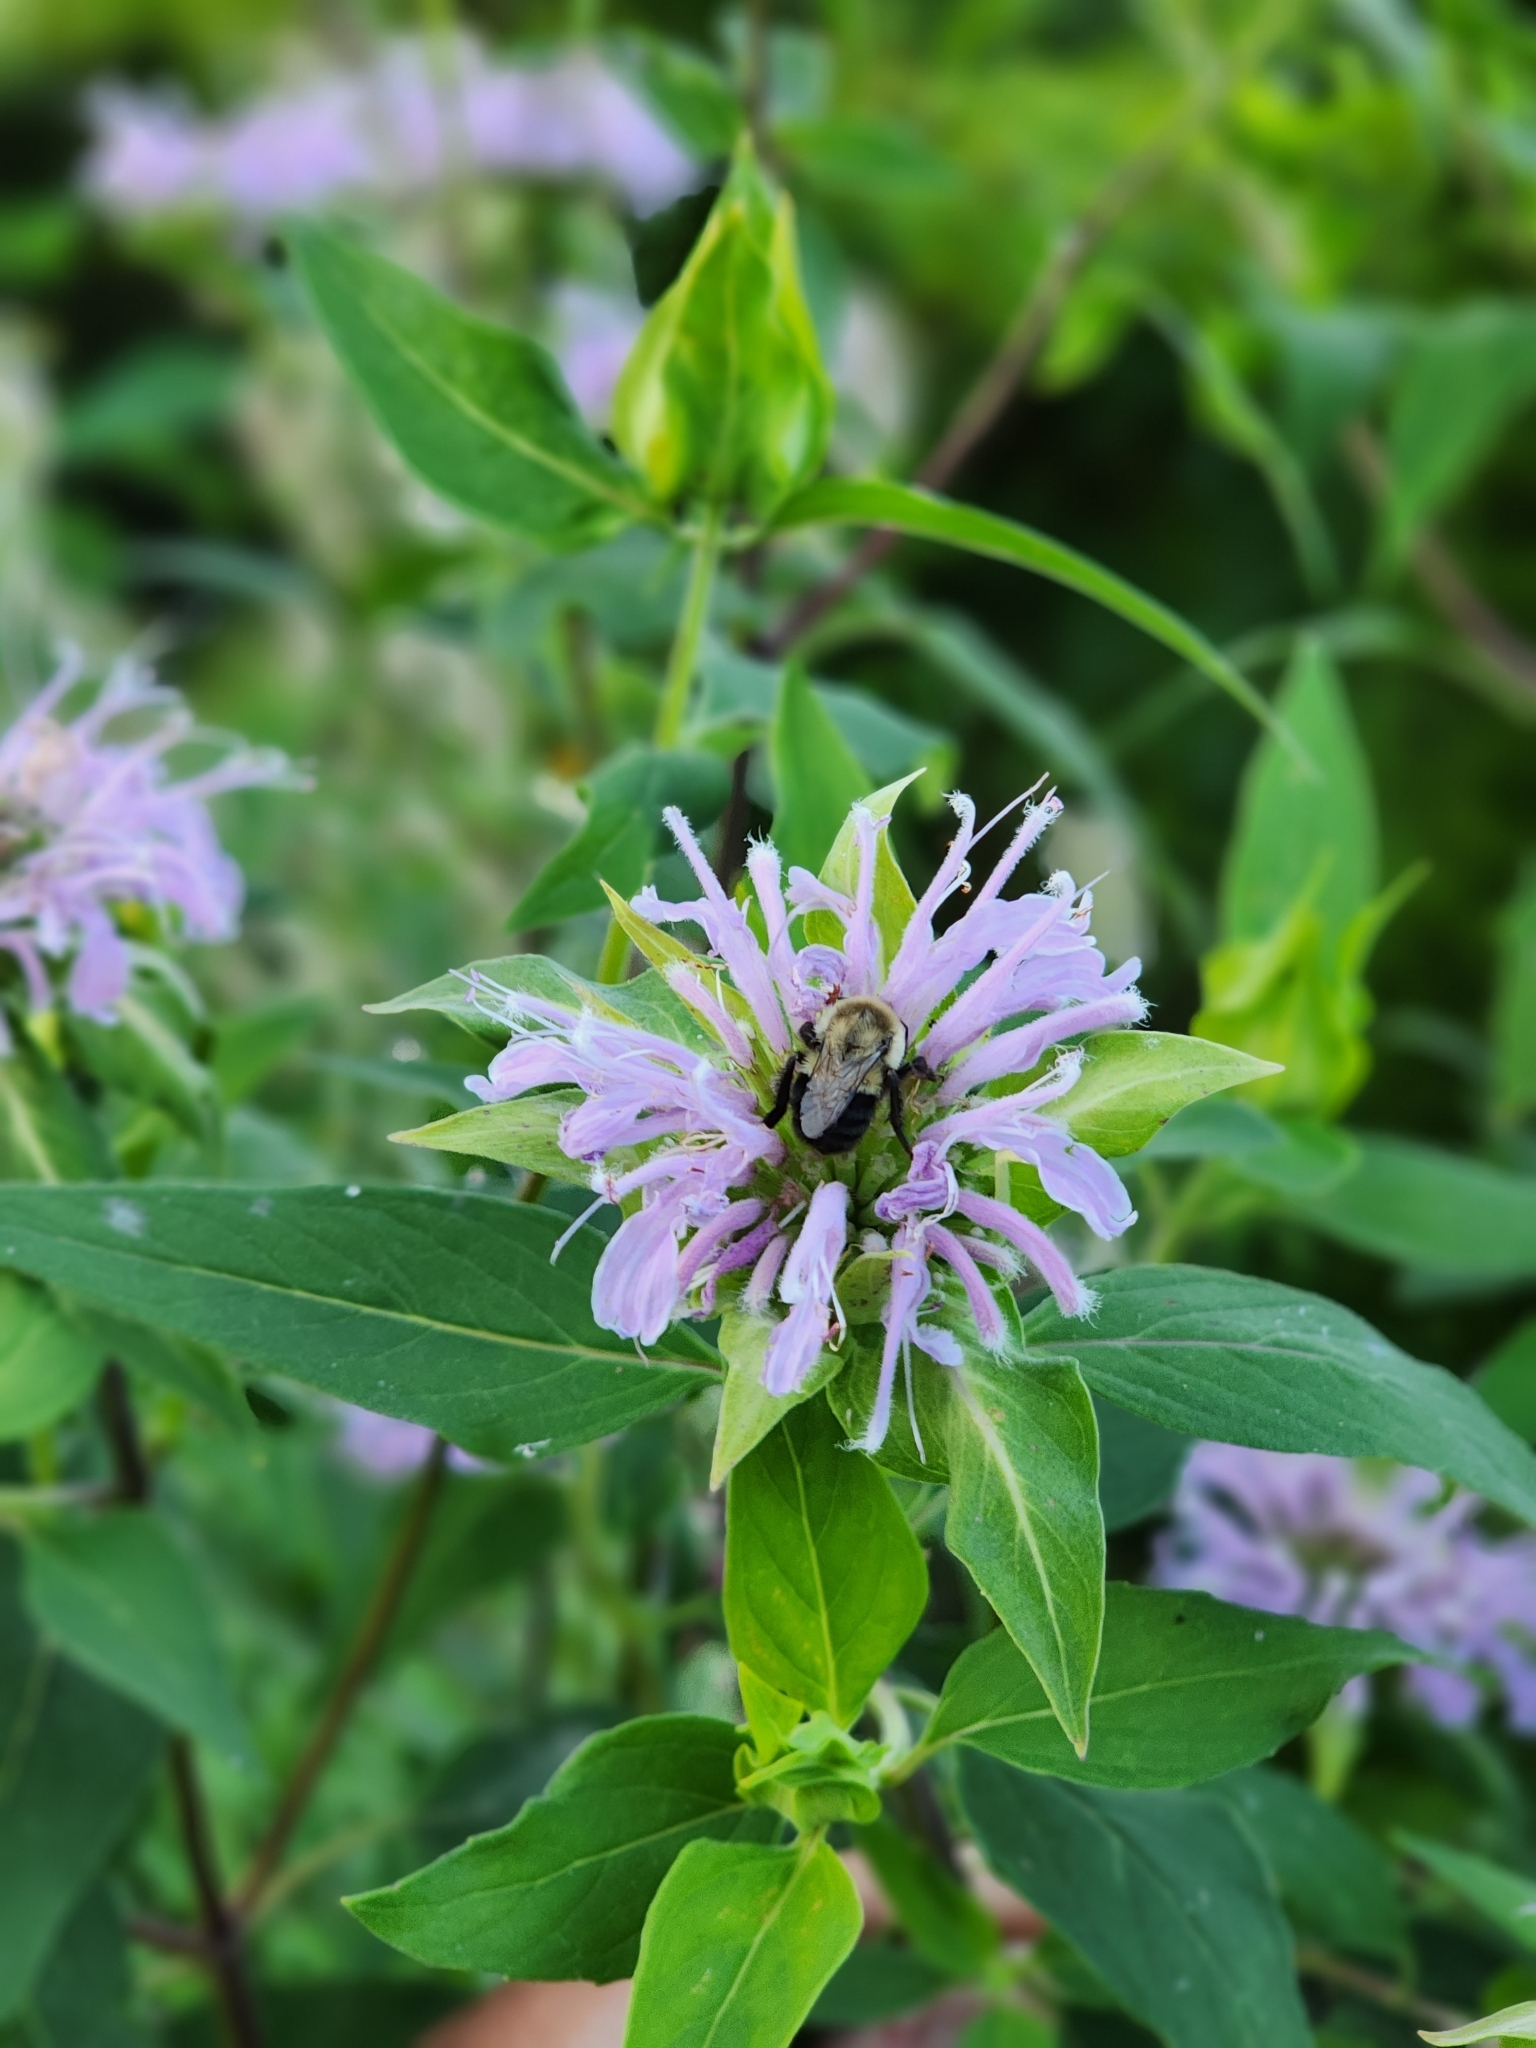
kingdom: Animalia
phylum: Arthropoda
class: Insecta
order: Hymenoptera
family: Apidae
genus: Bombus
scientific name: Bombus impatiens
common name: Common eastern bumble bee
